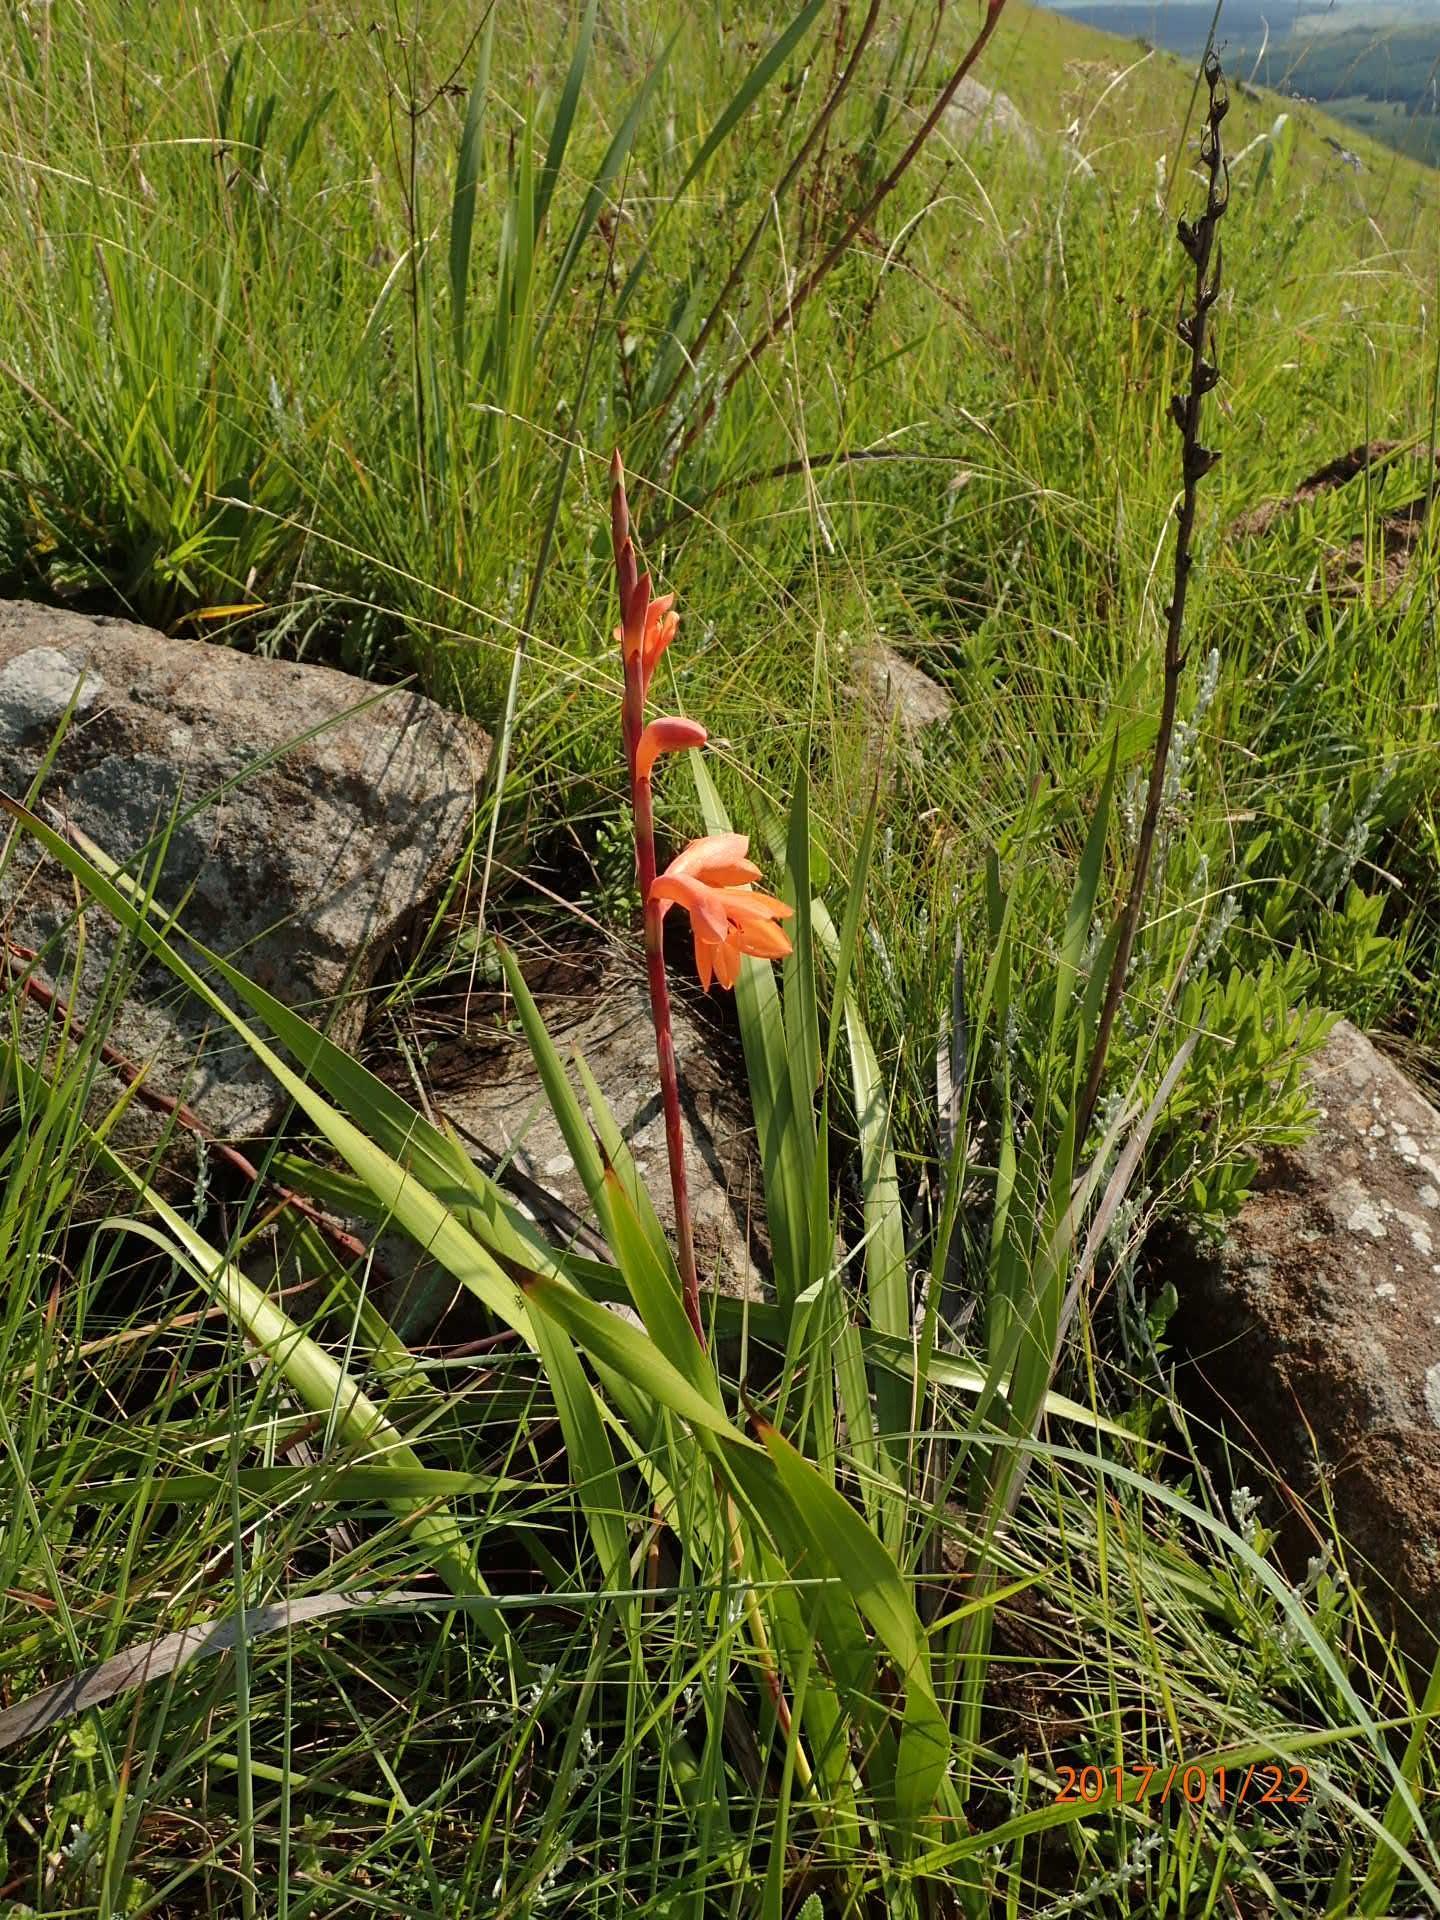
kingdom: Plantae
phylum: Tracheophyta
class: Liliopsida
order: Asparagales
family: Iridaceae
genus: Watsonia
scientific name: Watsonia pillansii
